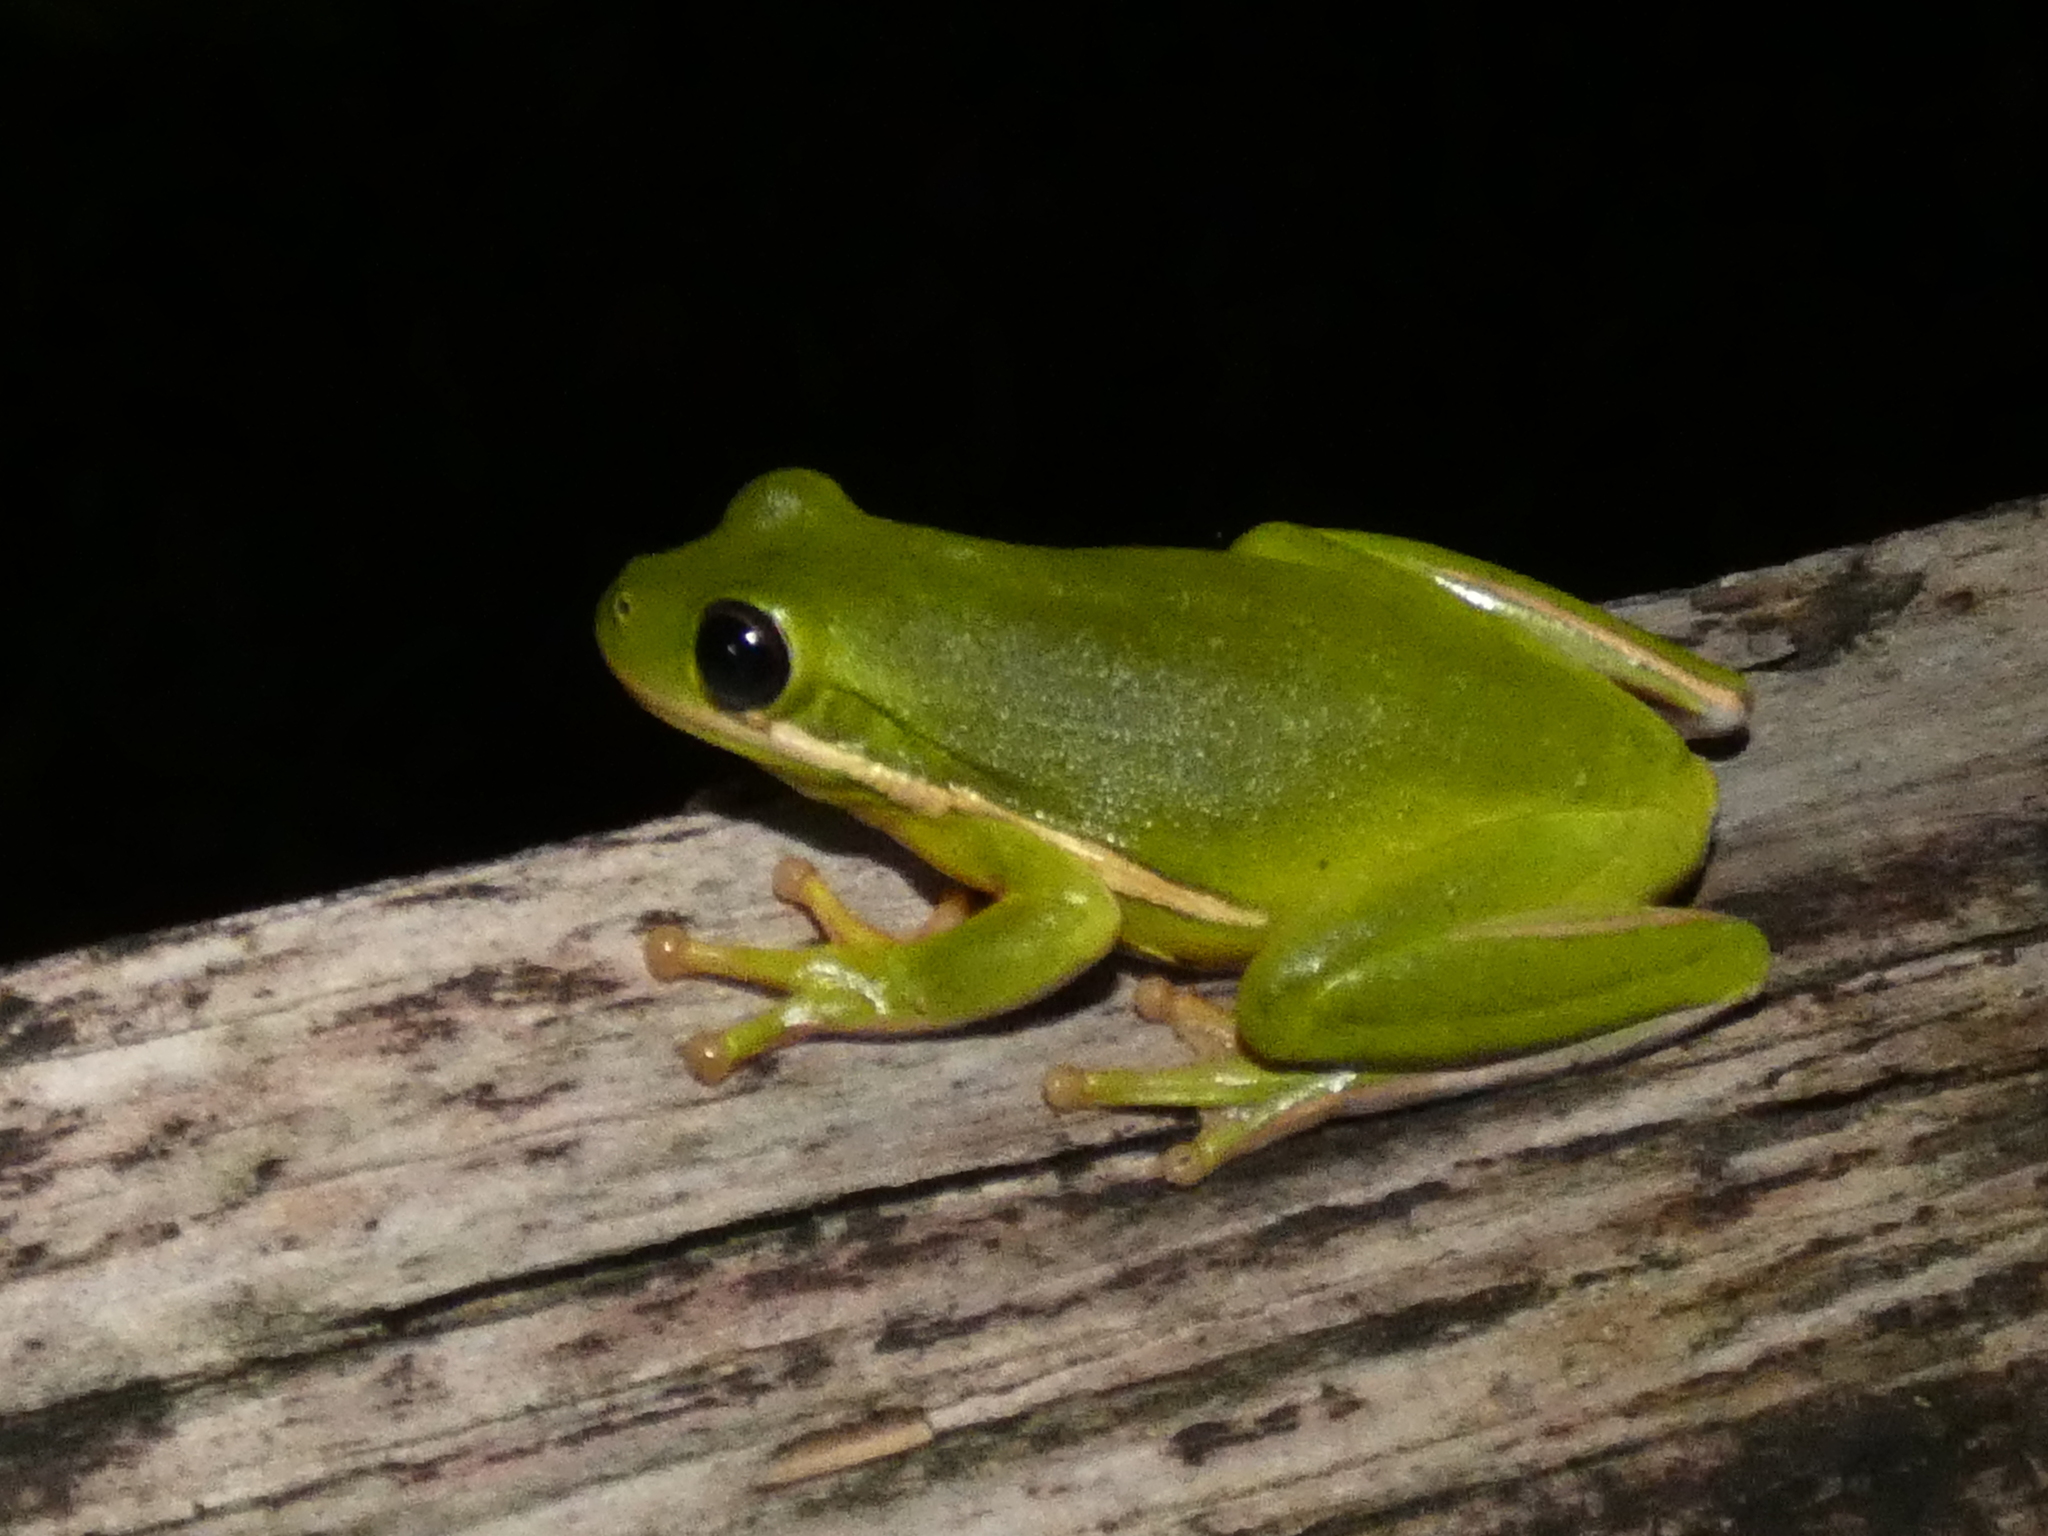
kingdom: Animalia
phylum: Chordata
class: Amphibia
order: Anura
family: Hylidae
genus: Dryophytes
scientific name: Dryophytes cinereus
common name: Green treefrog
